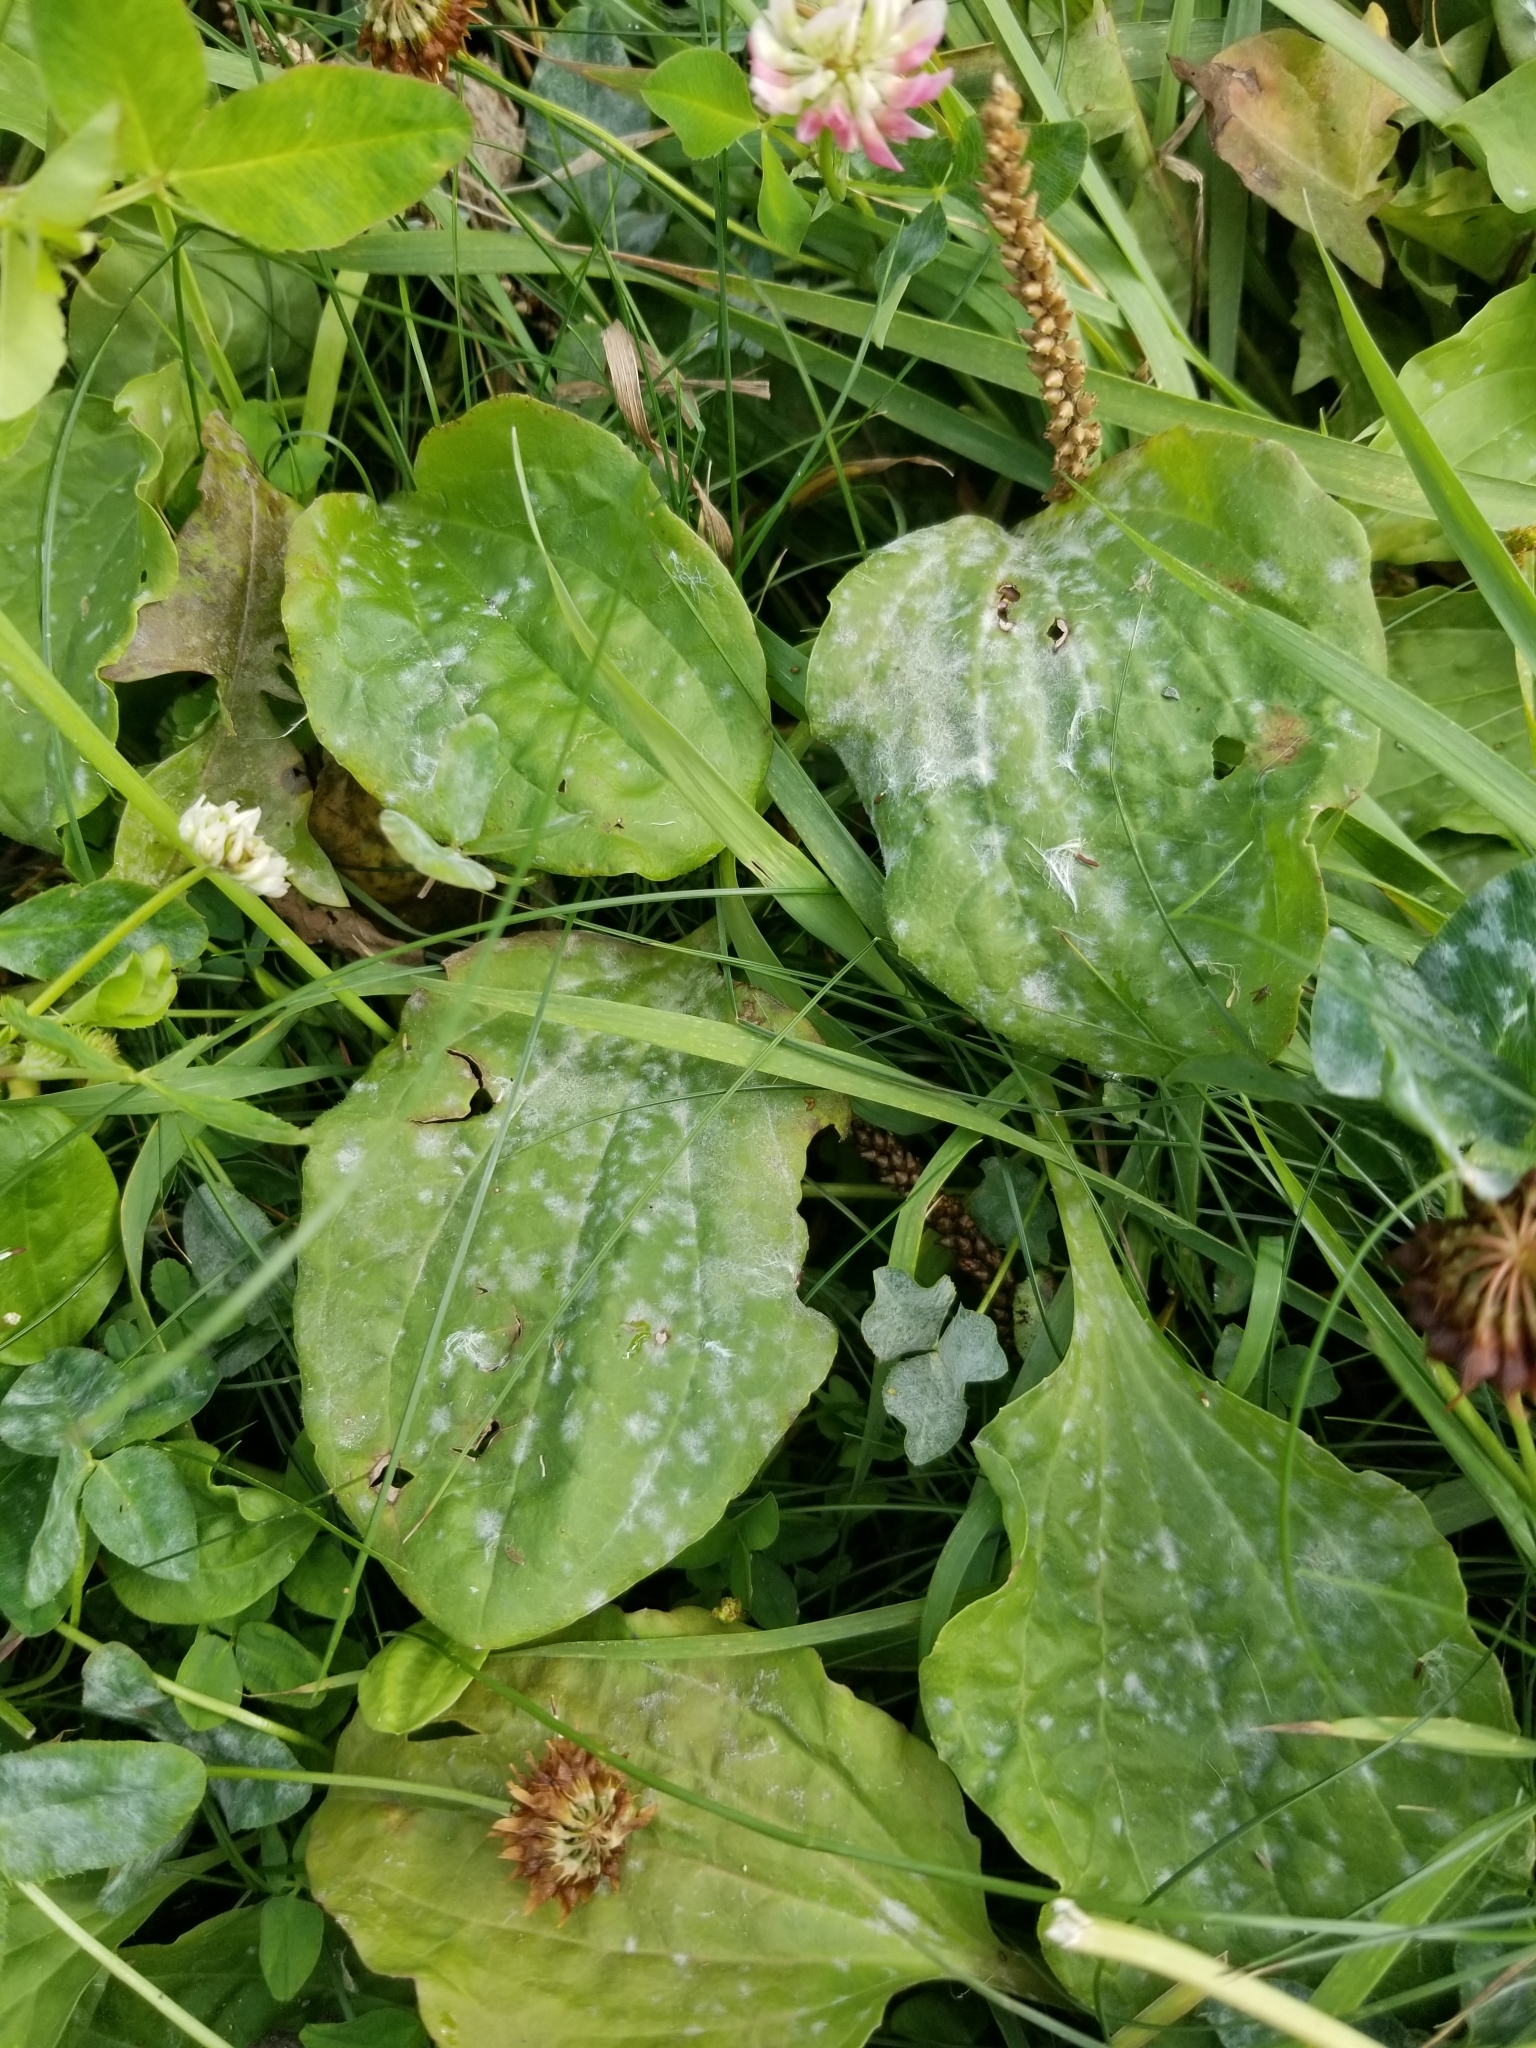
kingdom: Plantae
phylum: Tracheophyta
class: Magnoliopsida
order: Lamiales
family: Plantaginaceae
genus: Plantago
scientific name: Plantago major
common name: Common plantain
